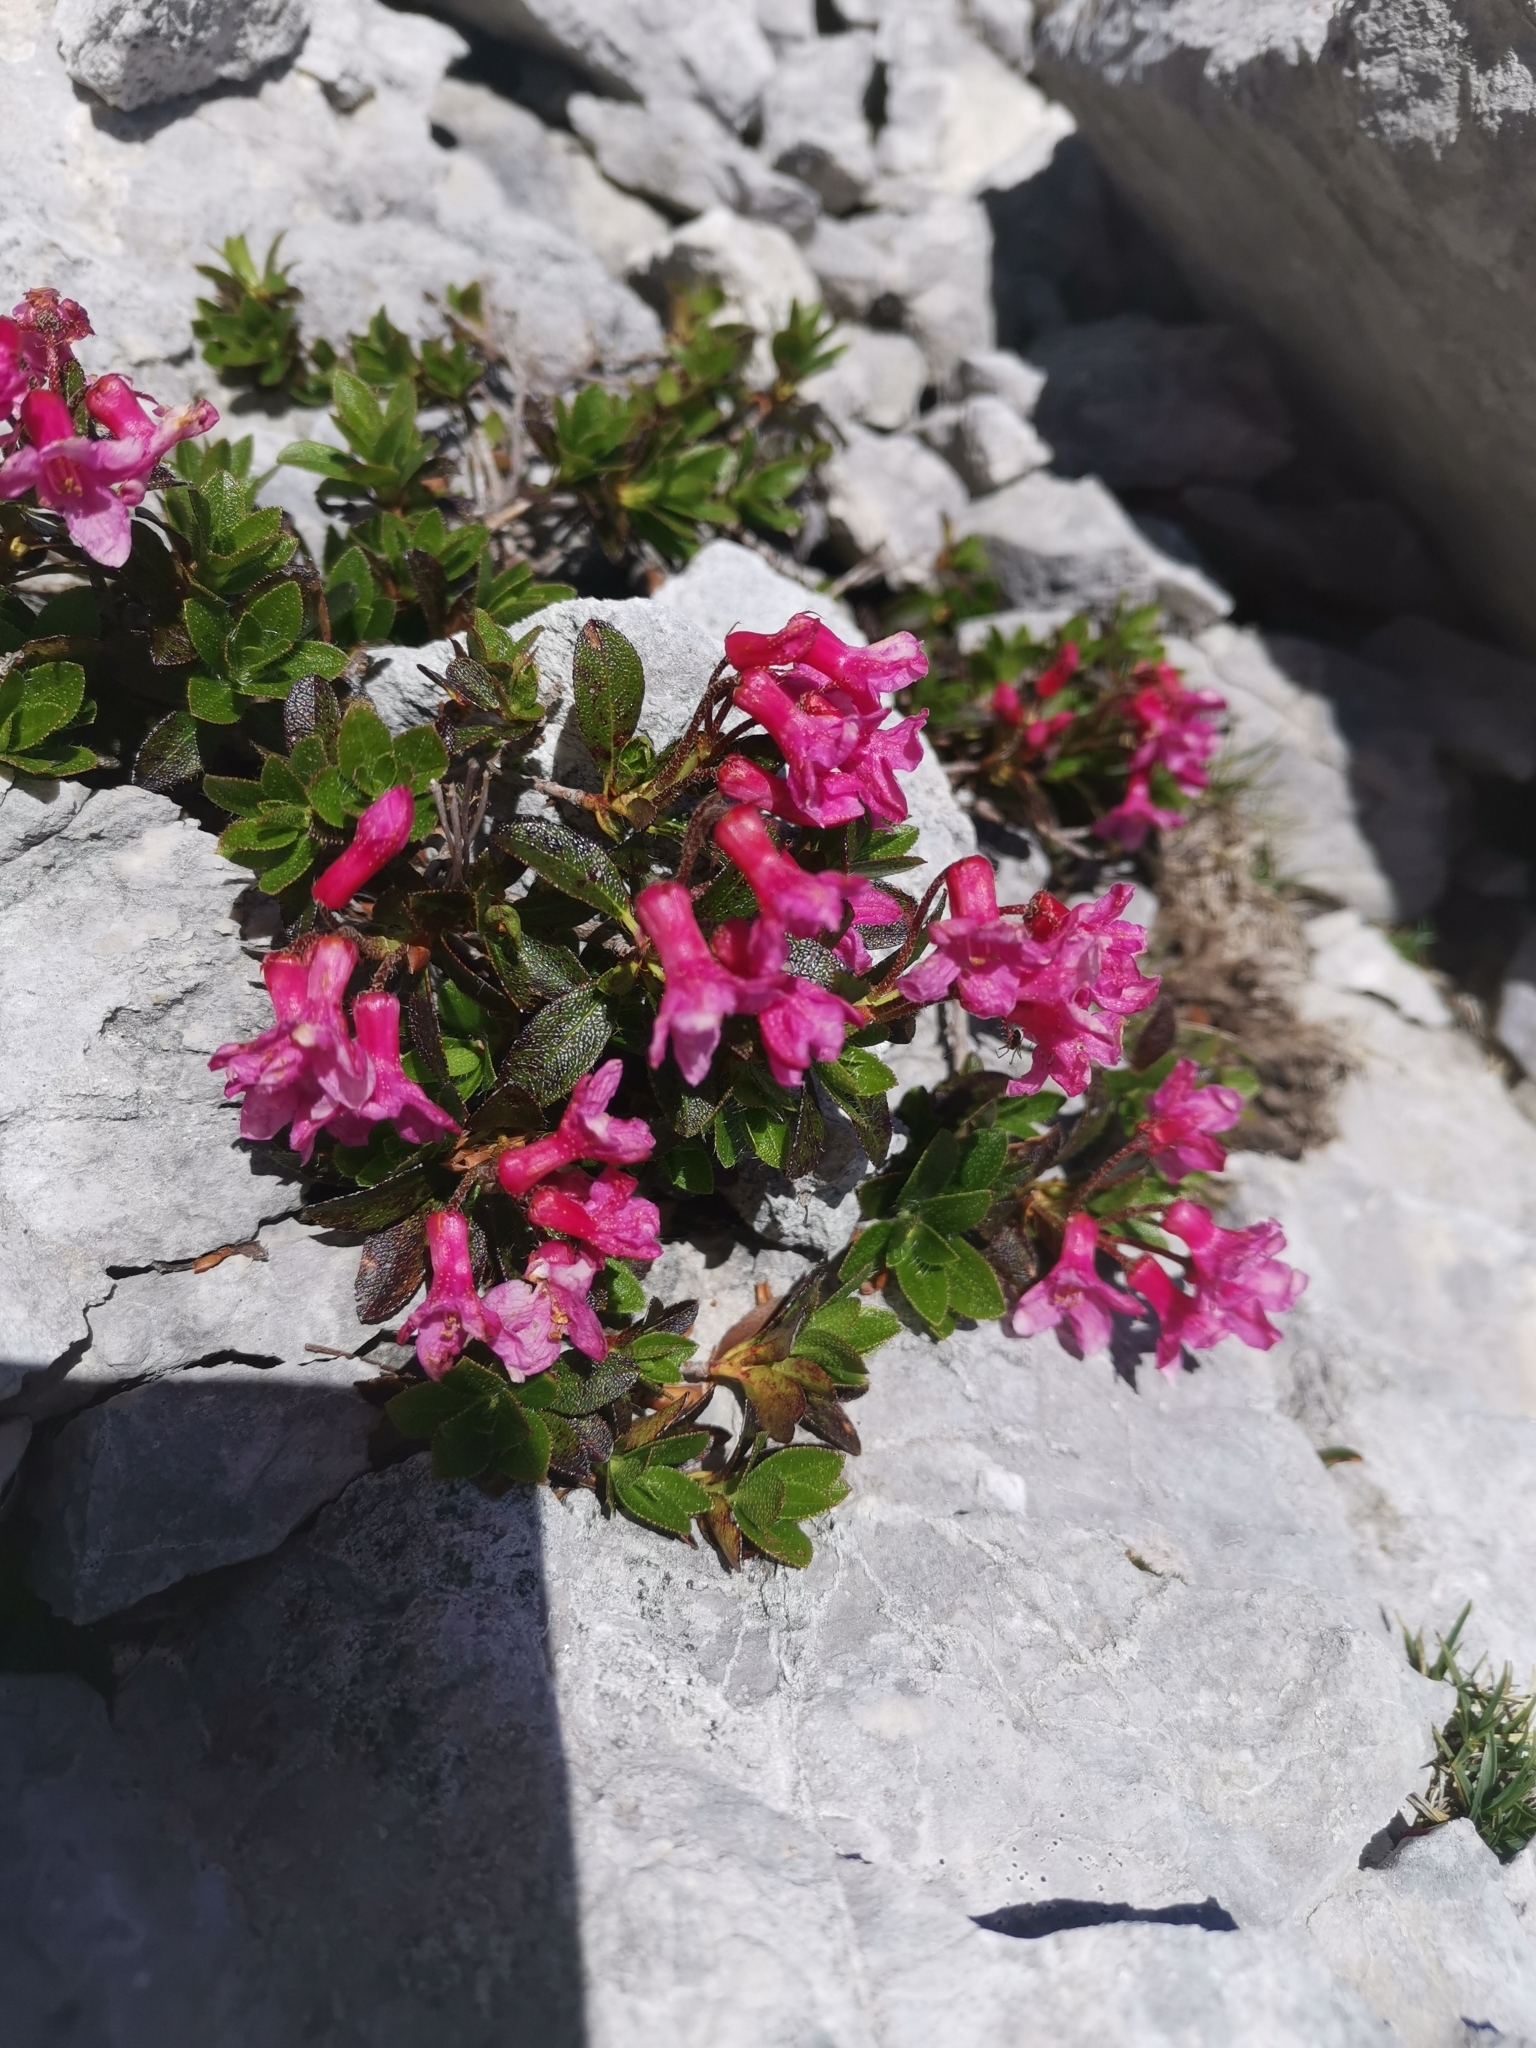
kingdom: Plantae
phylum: Tracheophyta
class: Magnoliopsida
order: Ericales
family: Ericaceae
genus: Rhododendron
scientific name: Rhododendron hirsutum
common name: Hairy alpenrose
